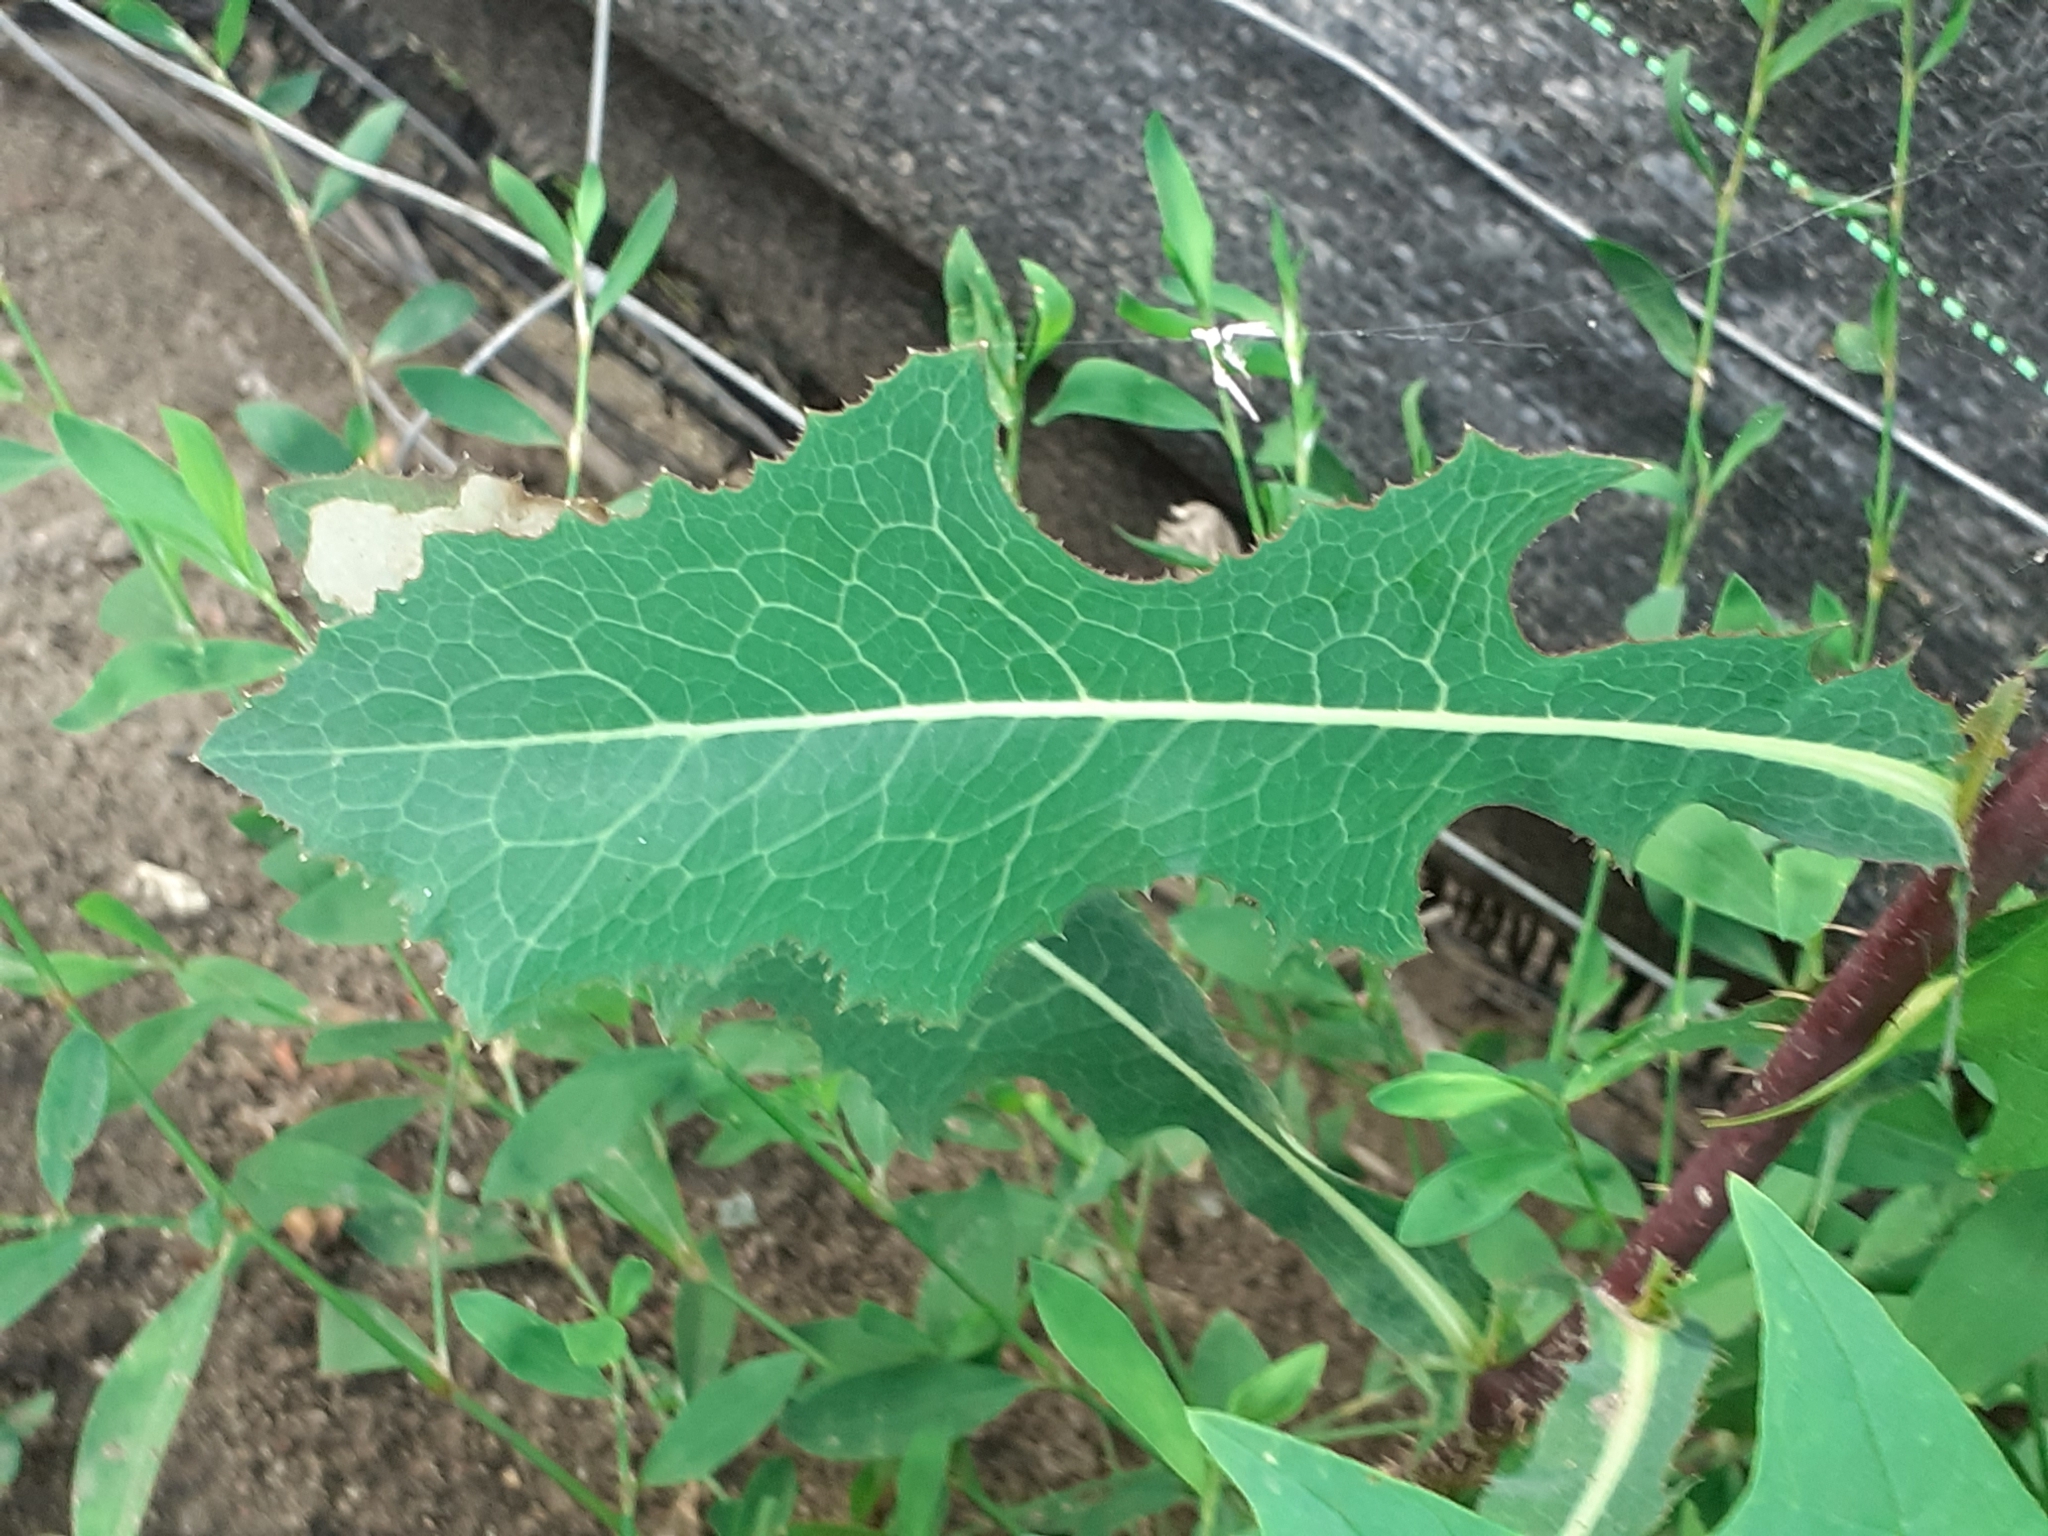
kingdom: Plantae
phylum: Tracheophyta
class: Magnoliopsida
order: Asterales
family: Asteraceae
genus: Lactuca
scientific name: Lactuca serriola
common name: Prickly lettuce
